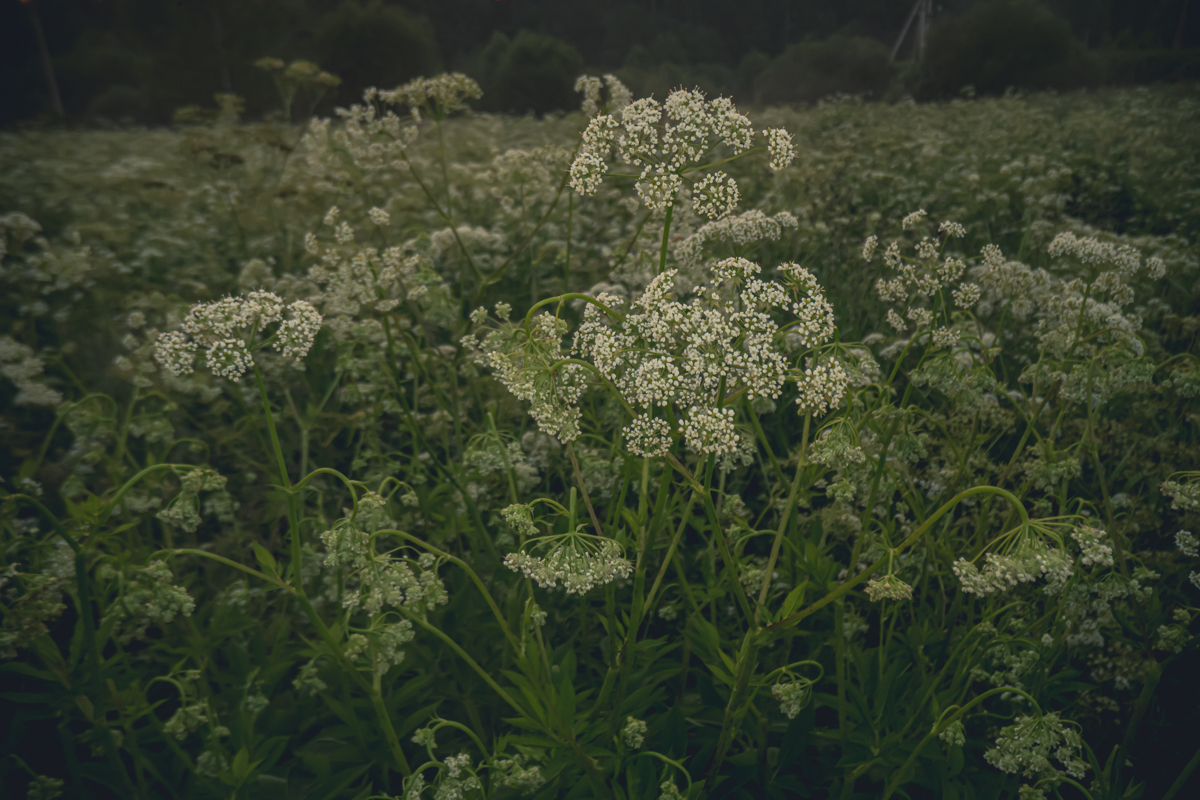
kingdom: Plantae
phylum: Tracheophyta
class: Magnoliopsida
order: Apiales
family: Apiaceae
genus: Anthriscus
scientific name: Anthriscus sylvestris
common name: Cow parsley
